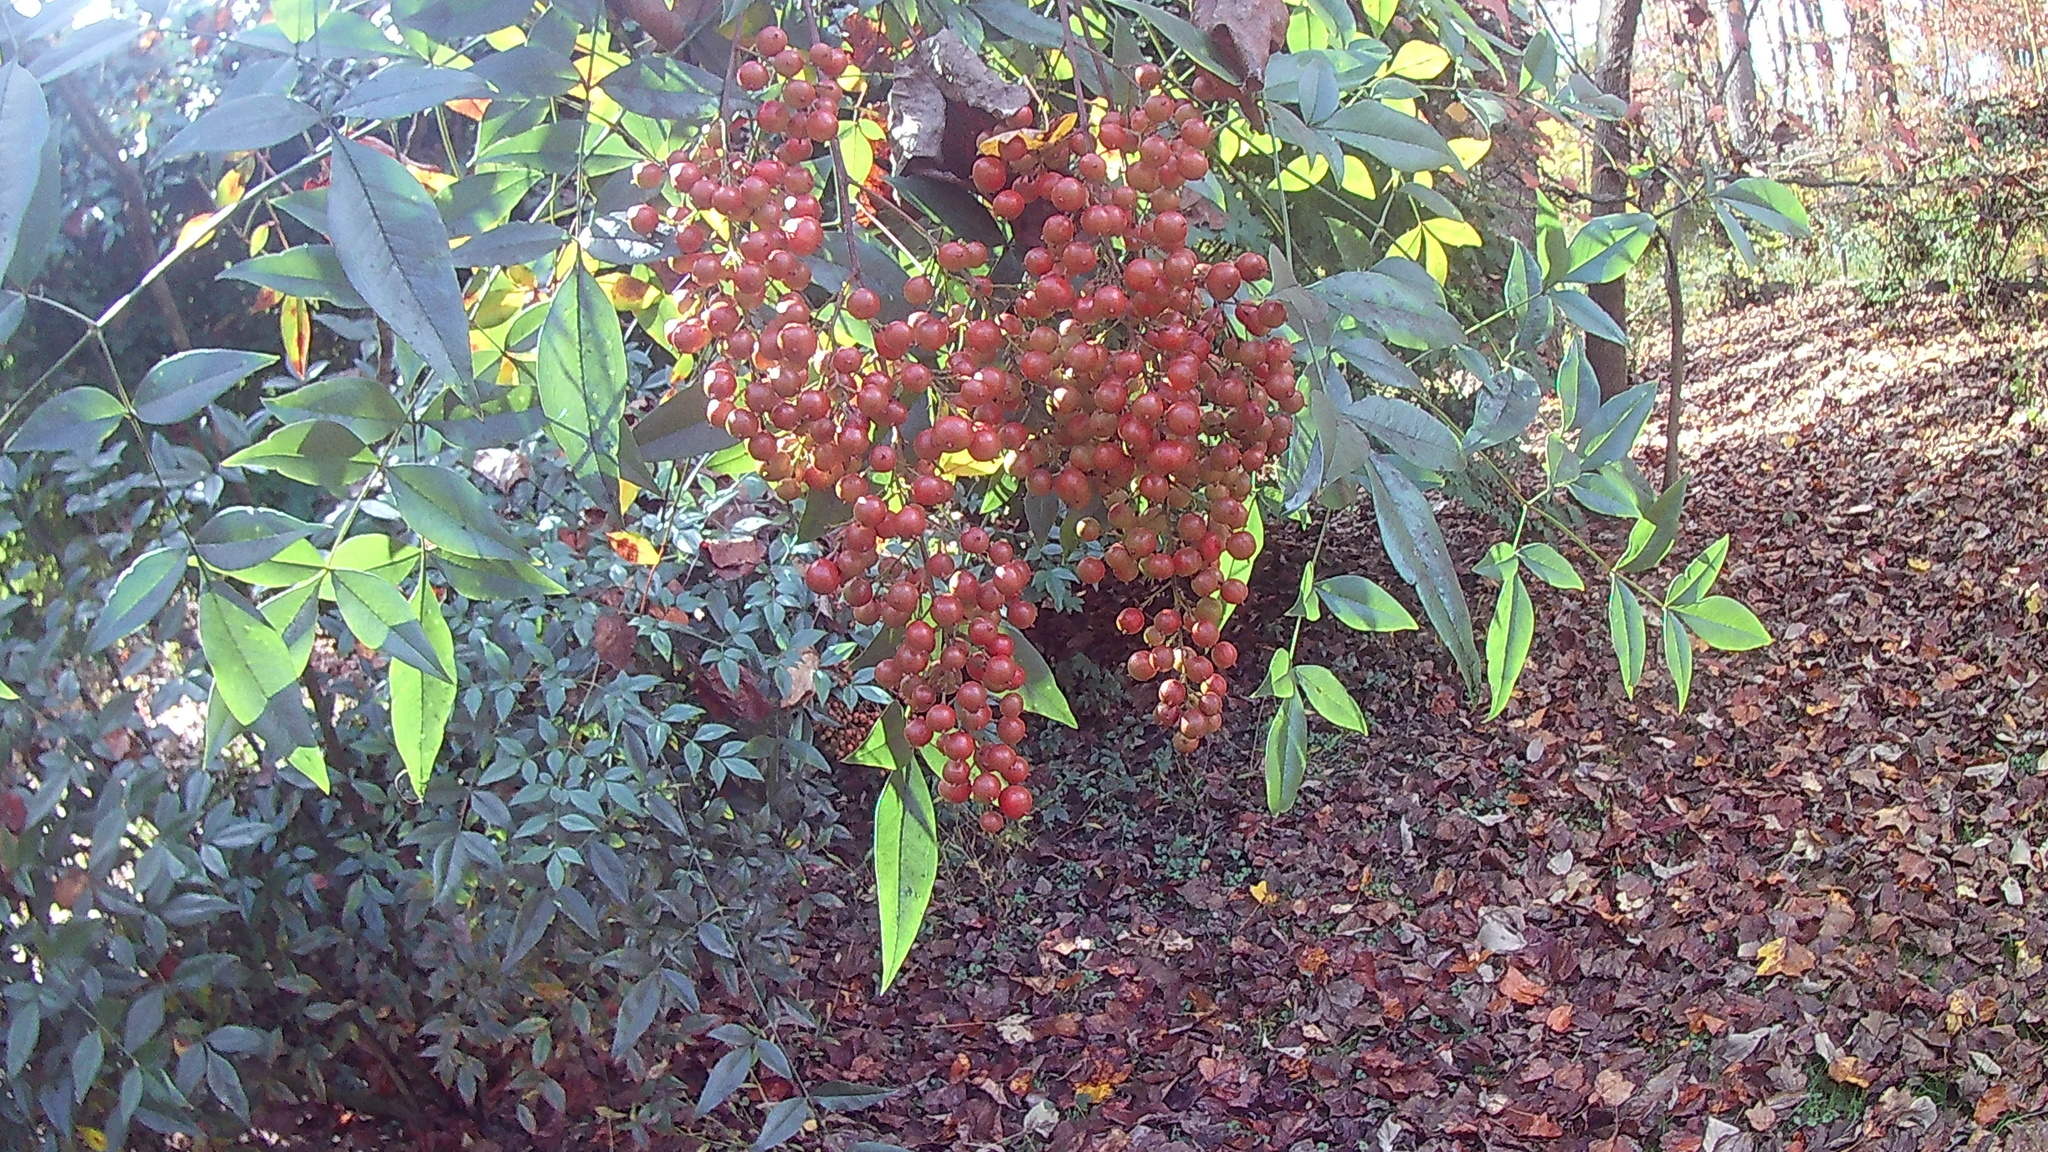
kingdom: Plantae
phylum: Tracheophyta
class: Magnoliopsida
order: Ranunculales
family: Berberidaceae
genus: Nandina
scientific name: Nandina domestica
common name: Sacred bamboo
